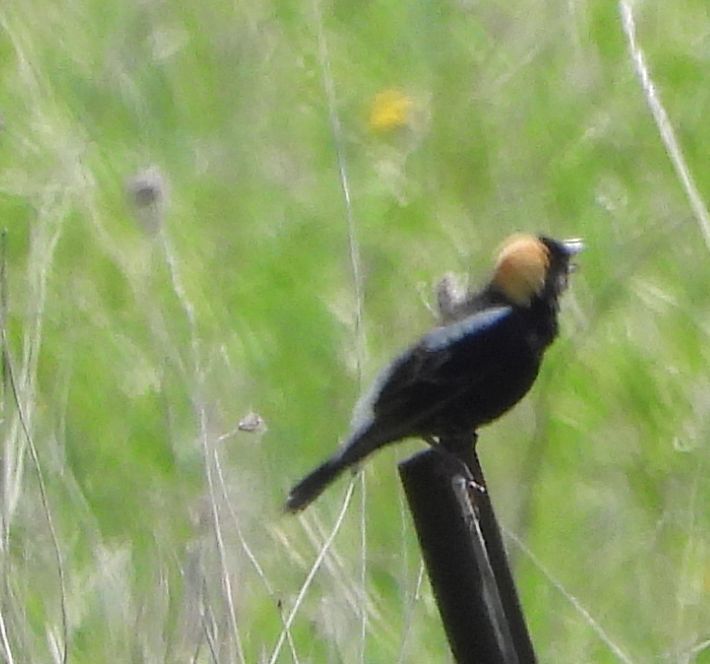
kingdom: Animalia
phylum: Chordata
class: Aves
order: Passeriformes
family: Icteridae
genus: Dolichonyx
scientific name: Dolichonyx oryzivorus
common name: Bobolink
